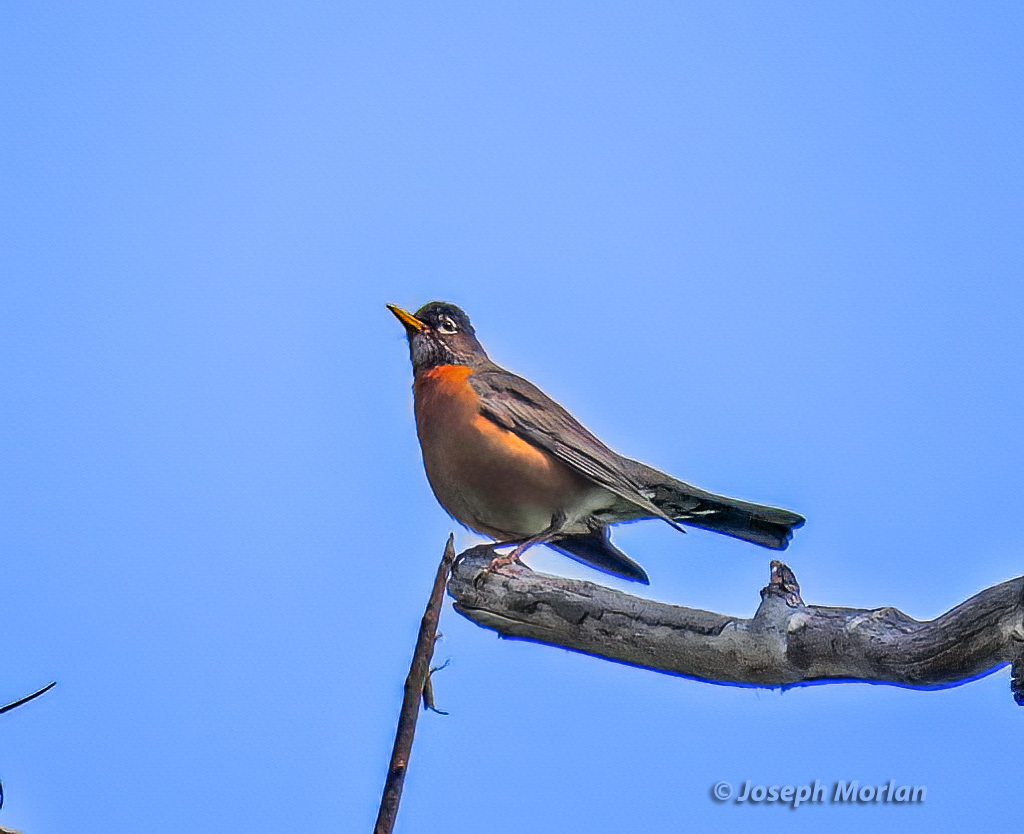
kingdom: Animalia
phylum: Chordata
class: Aves
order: Passeriformes
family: Turdidae
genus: Turdus
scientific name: Turdus migratorius
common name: American robin
